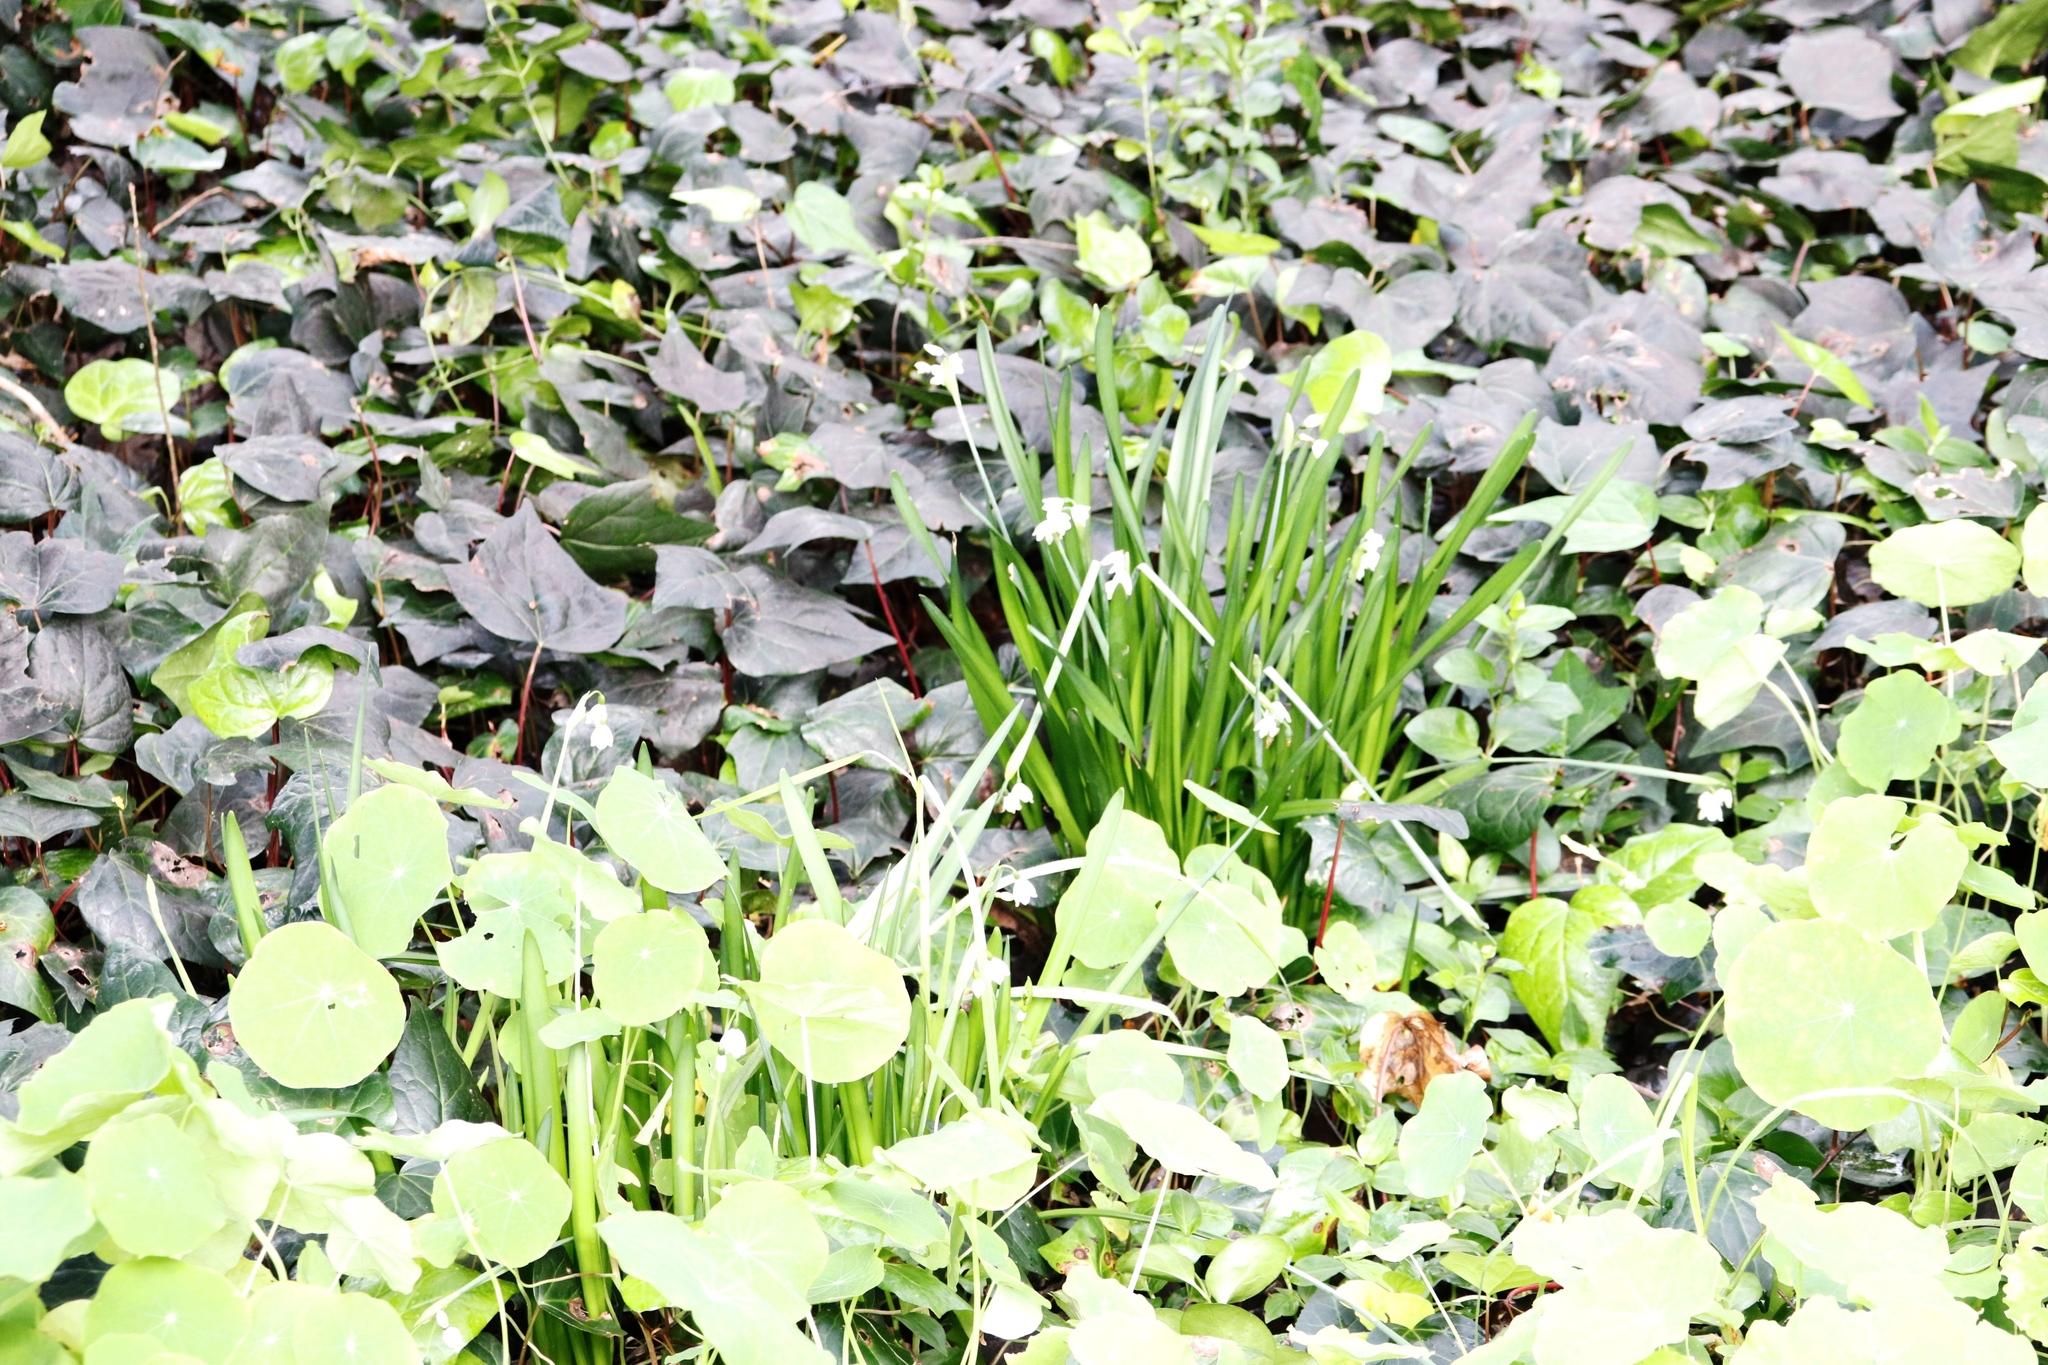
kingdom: Plantae
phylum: Tracheophyta
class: Liliopsida
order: Asparagales
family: Amaryllidaceae
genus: Leucojum
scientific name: Leucojum aestivum
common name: Summer snowflake
